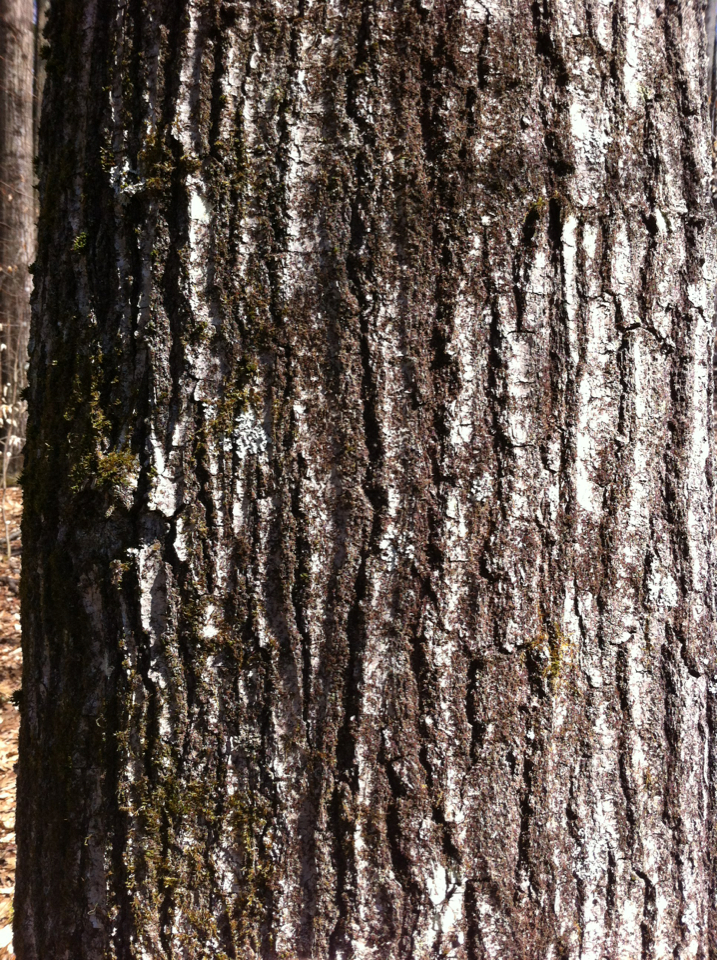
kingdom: Plantae
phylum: Tracheophyta
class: Magnoliopsida
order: Fagales
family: Fagaceae
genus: Quercus
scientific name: Quercus rubra
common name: Red oak
